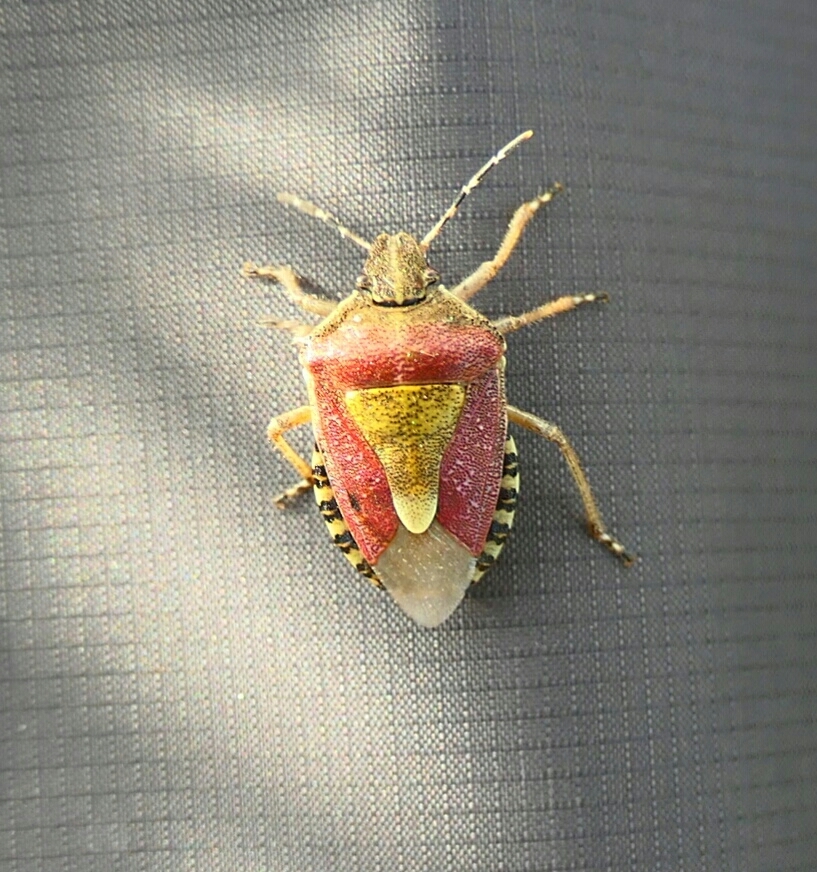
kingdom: Animalia
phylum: Arthropoda
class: Insecta
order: Hemiptera
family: Pentatomidae
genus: Dolycoris
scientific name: Dolycoris baccarum
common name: Sloe bug
